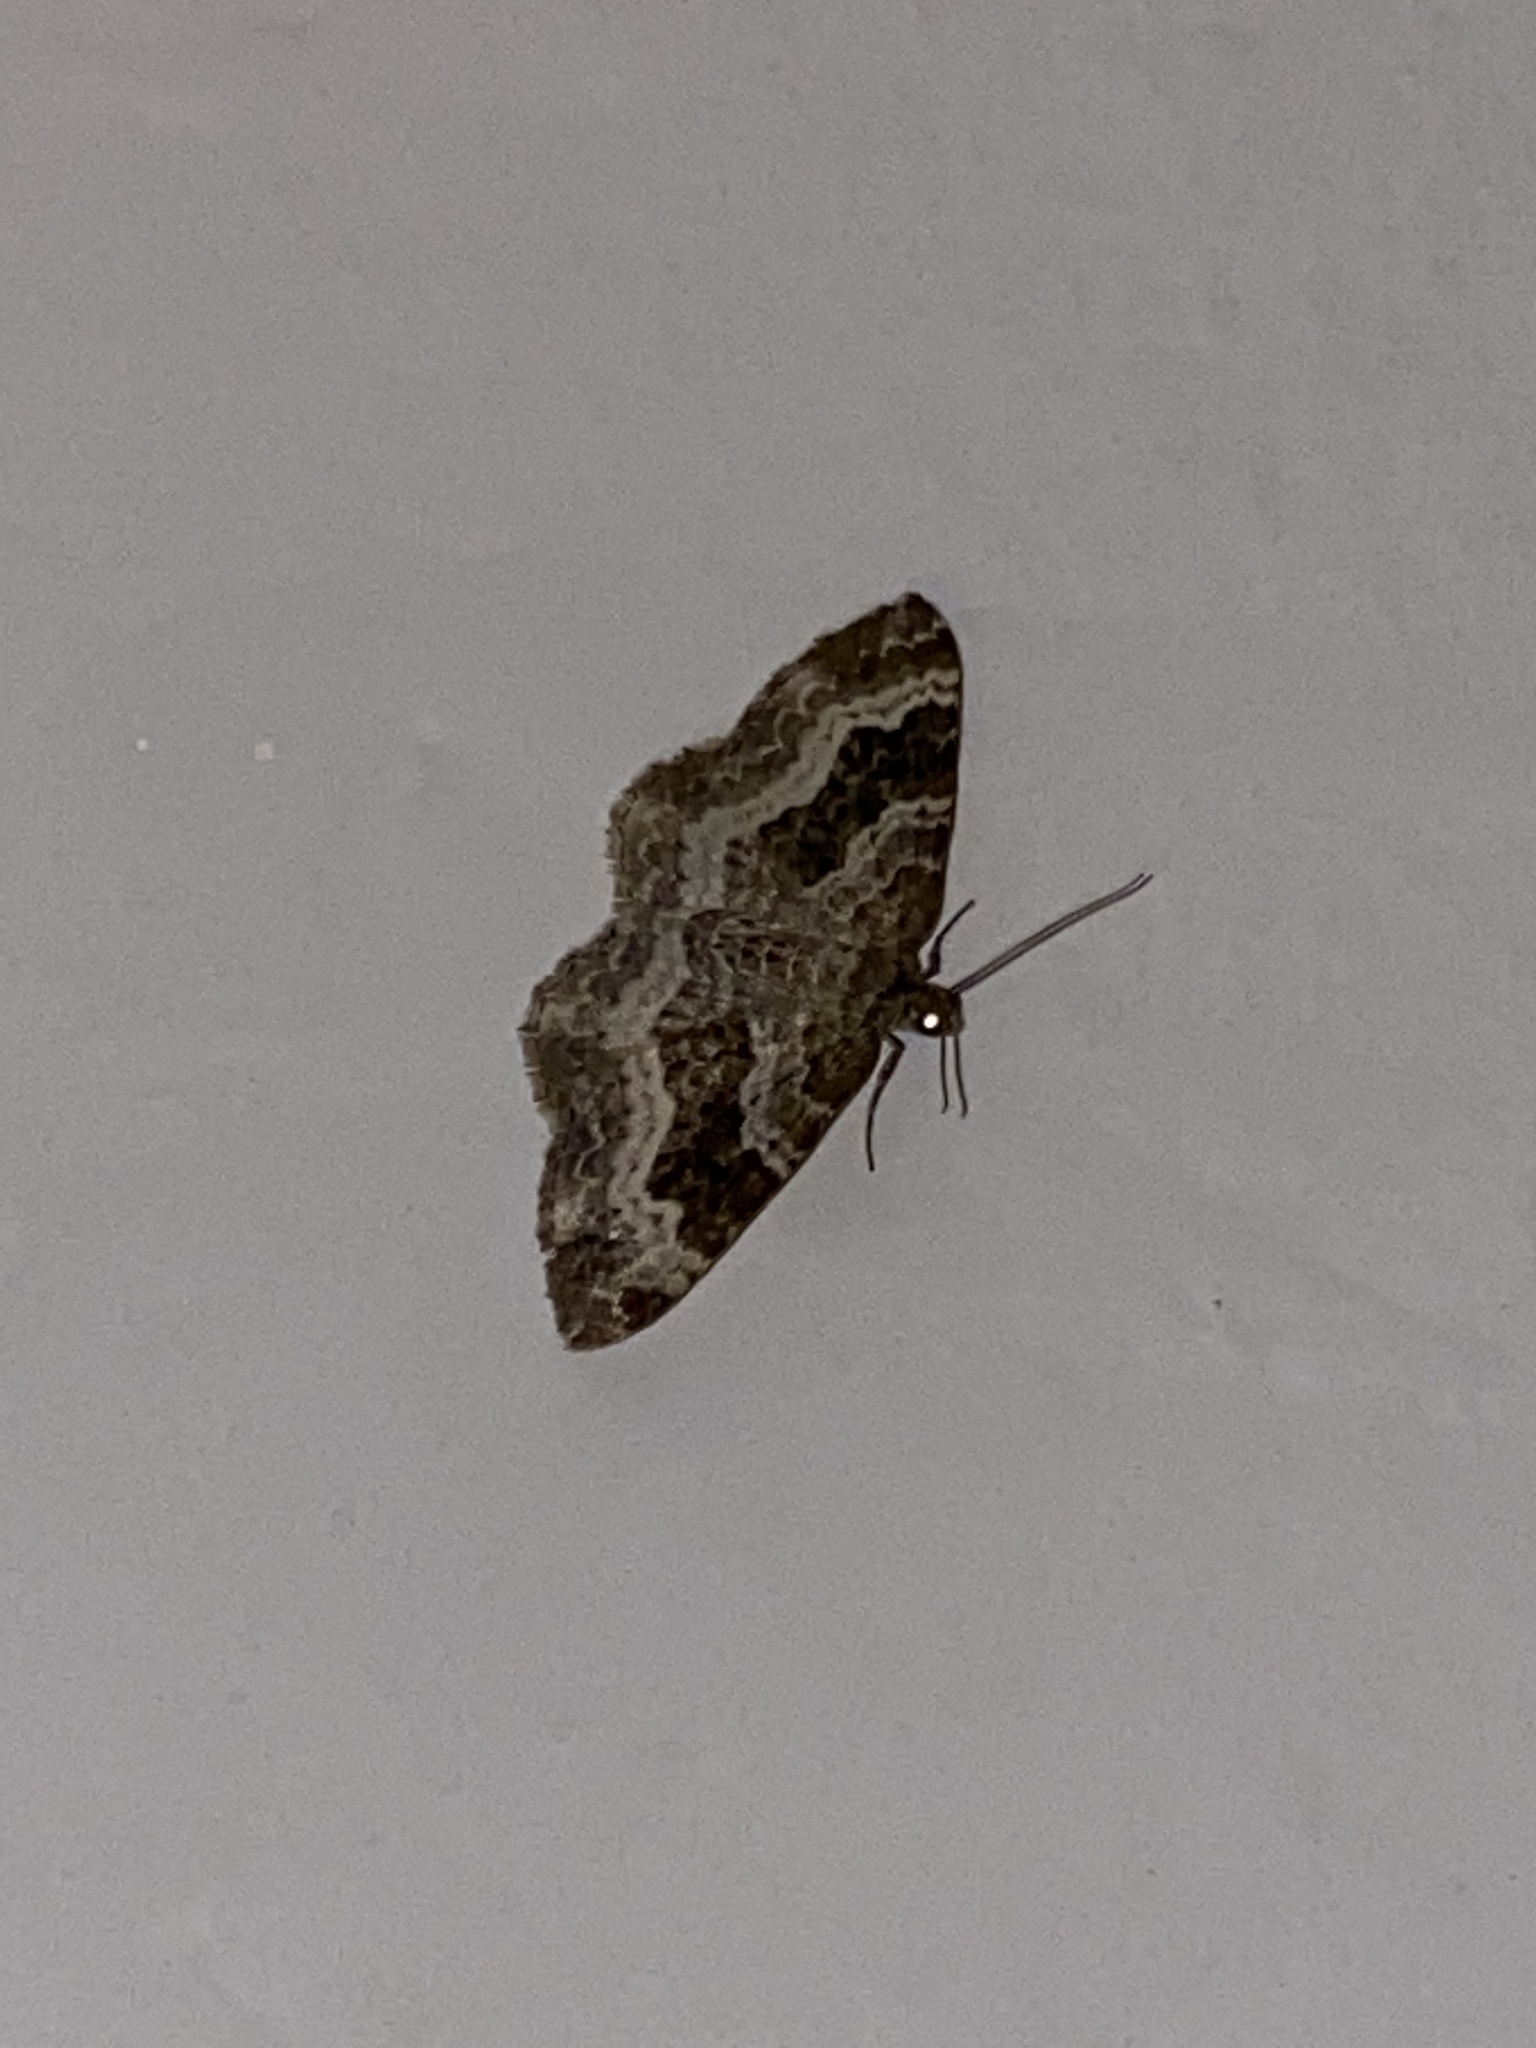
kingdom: Animalia
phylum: Arthropoda
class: Insecta
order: Lepidoptera
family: Geometridae
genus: Epirrhoe
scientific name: Epirrhoe alternata
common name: Common carpet
